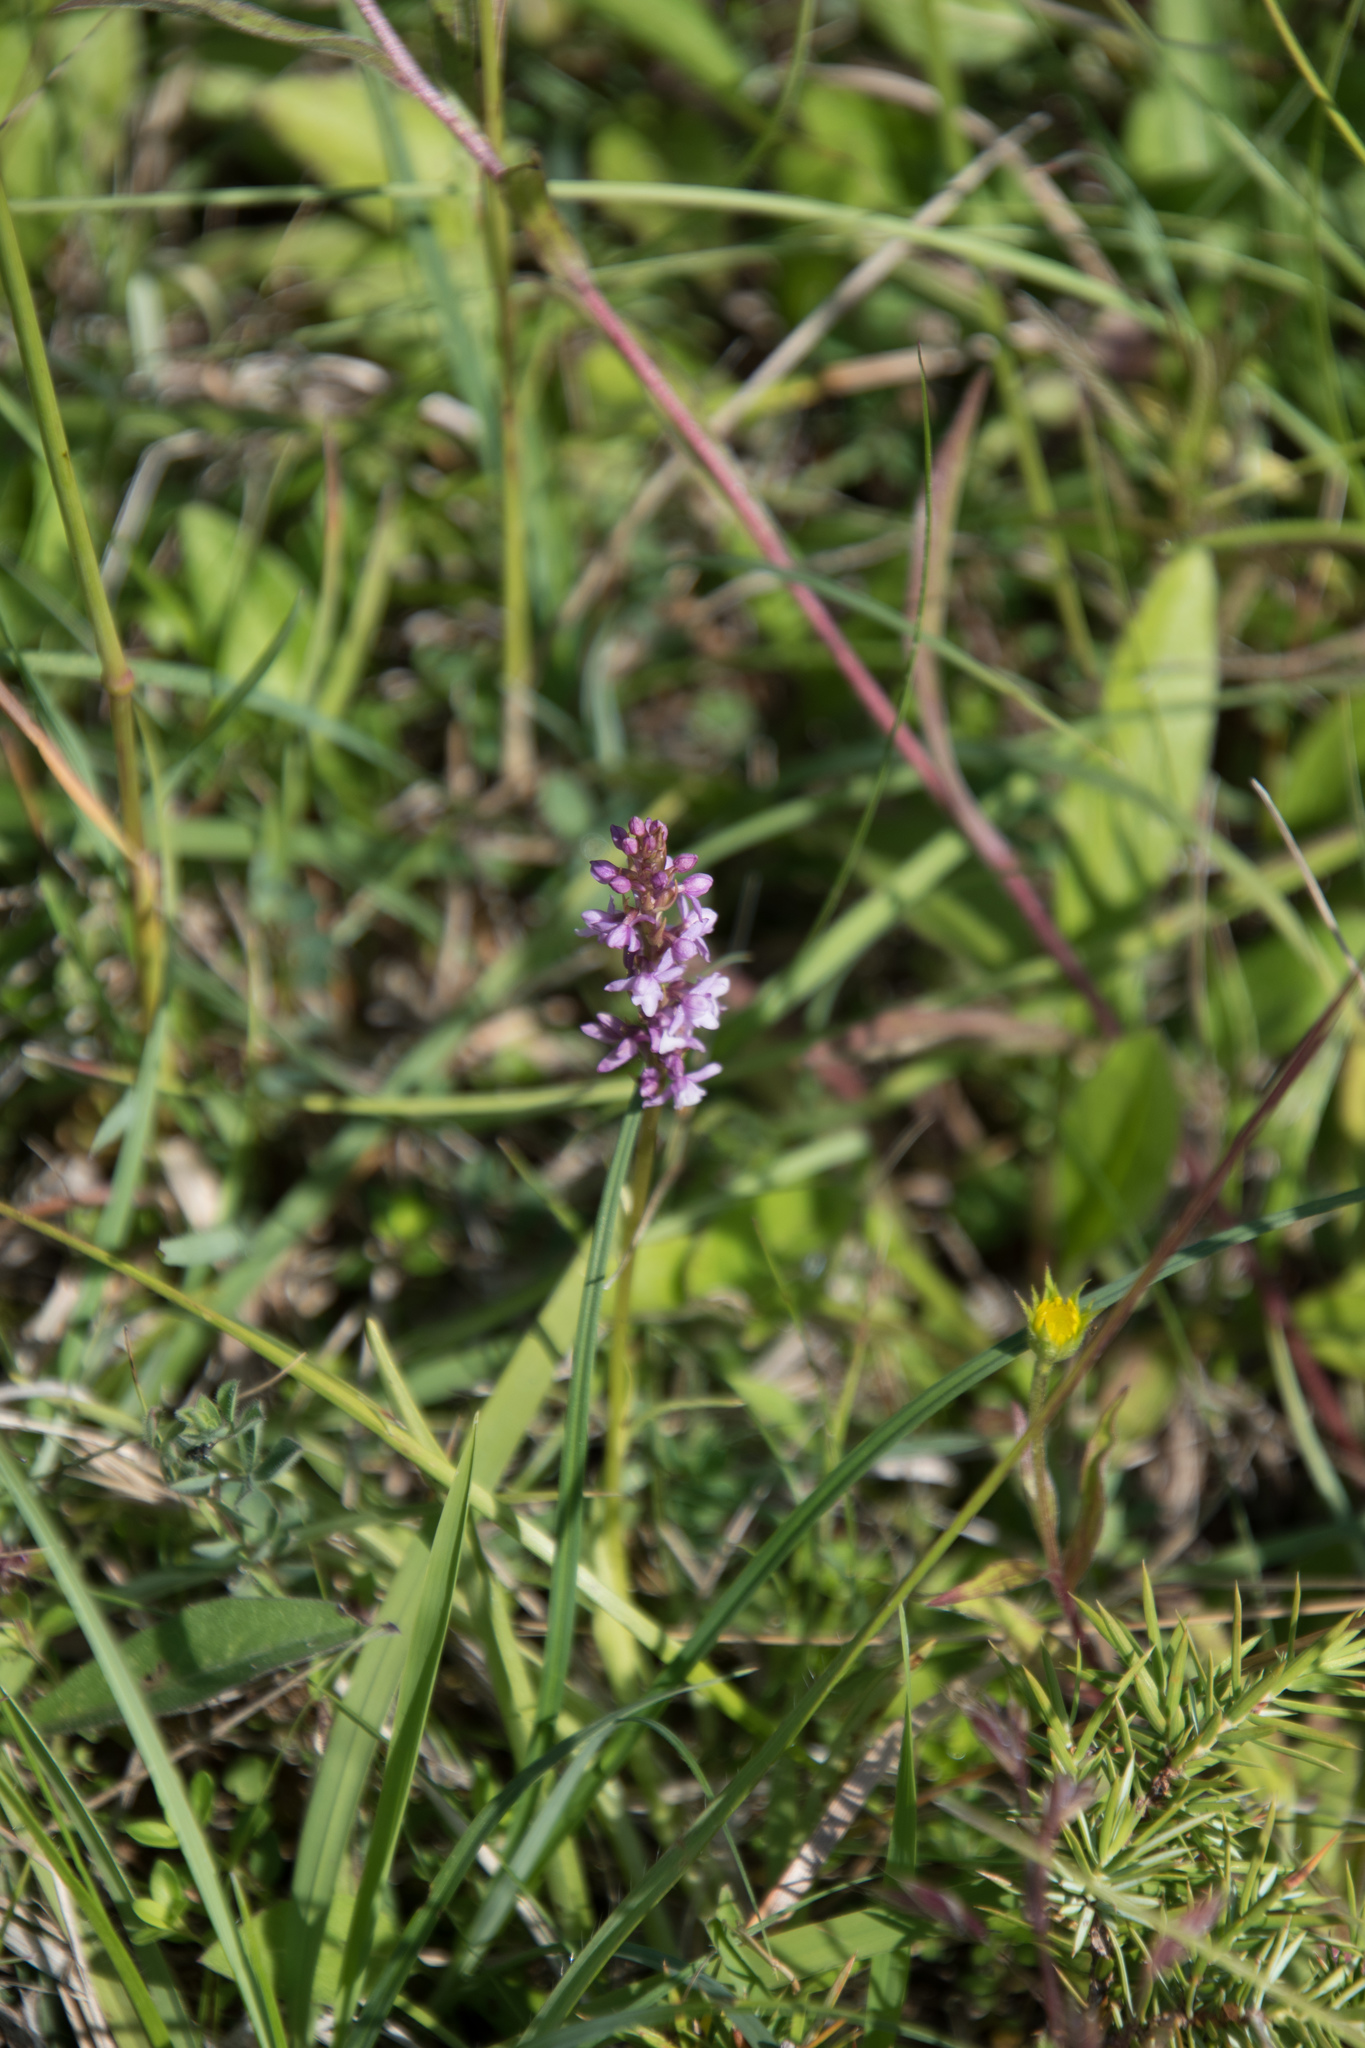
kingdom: Plantae
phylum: Tracheophyta
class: Liliopsida
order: Asparagales
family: Orchidaceae
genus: Gymnadenia
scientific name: Gymnadenia odoratissima
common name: Scented gymnadenia
